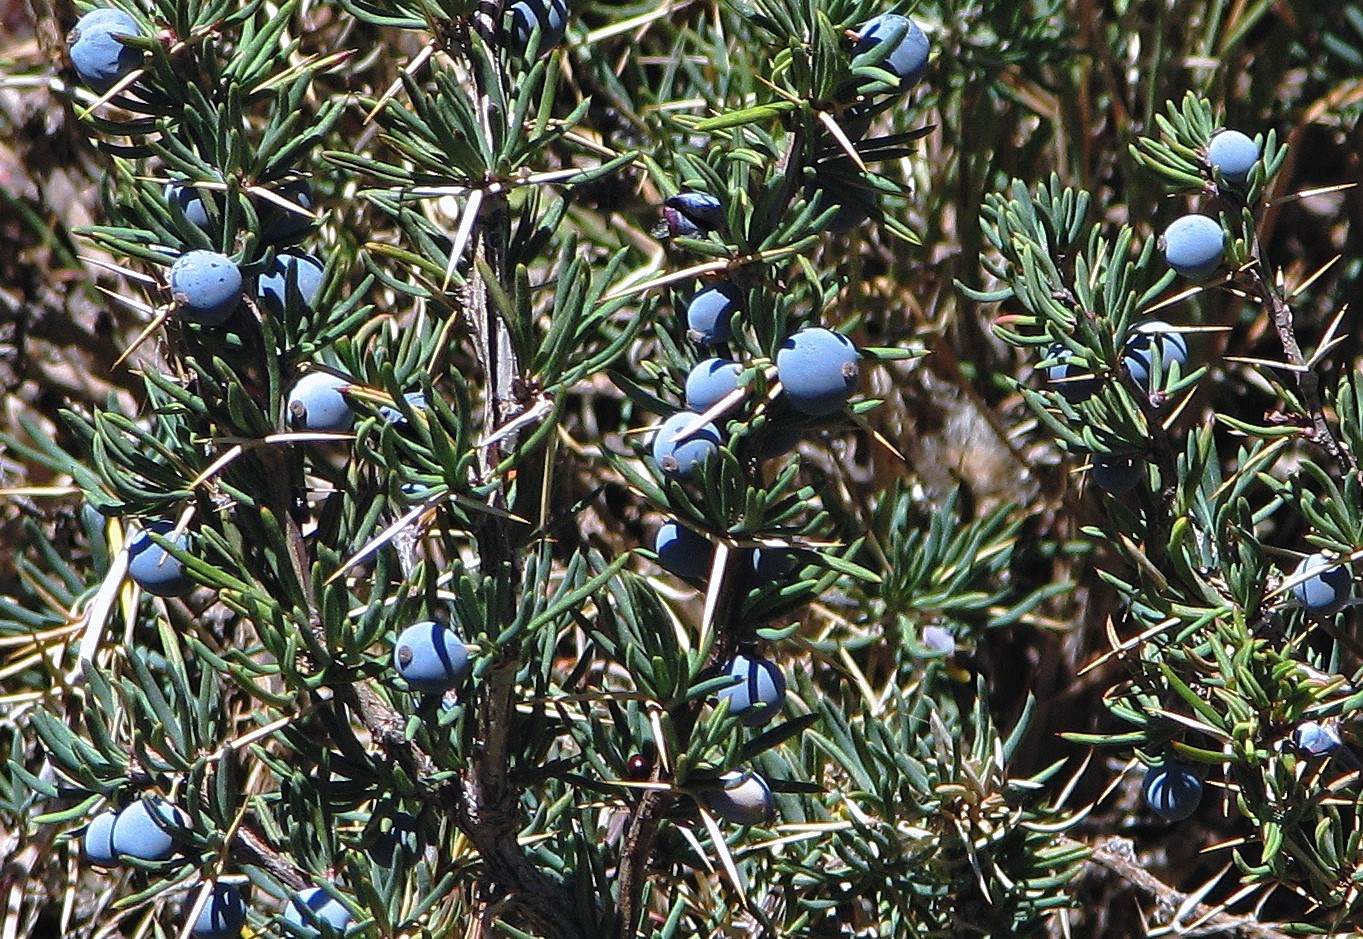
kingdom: Plantae
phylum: Tracheophyta
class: Magnoliopsida
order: Ranunculales
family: Berberidaceae
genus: Berberis
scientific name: Berberis empetrifolia
